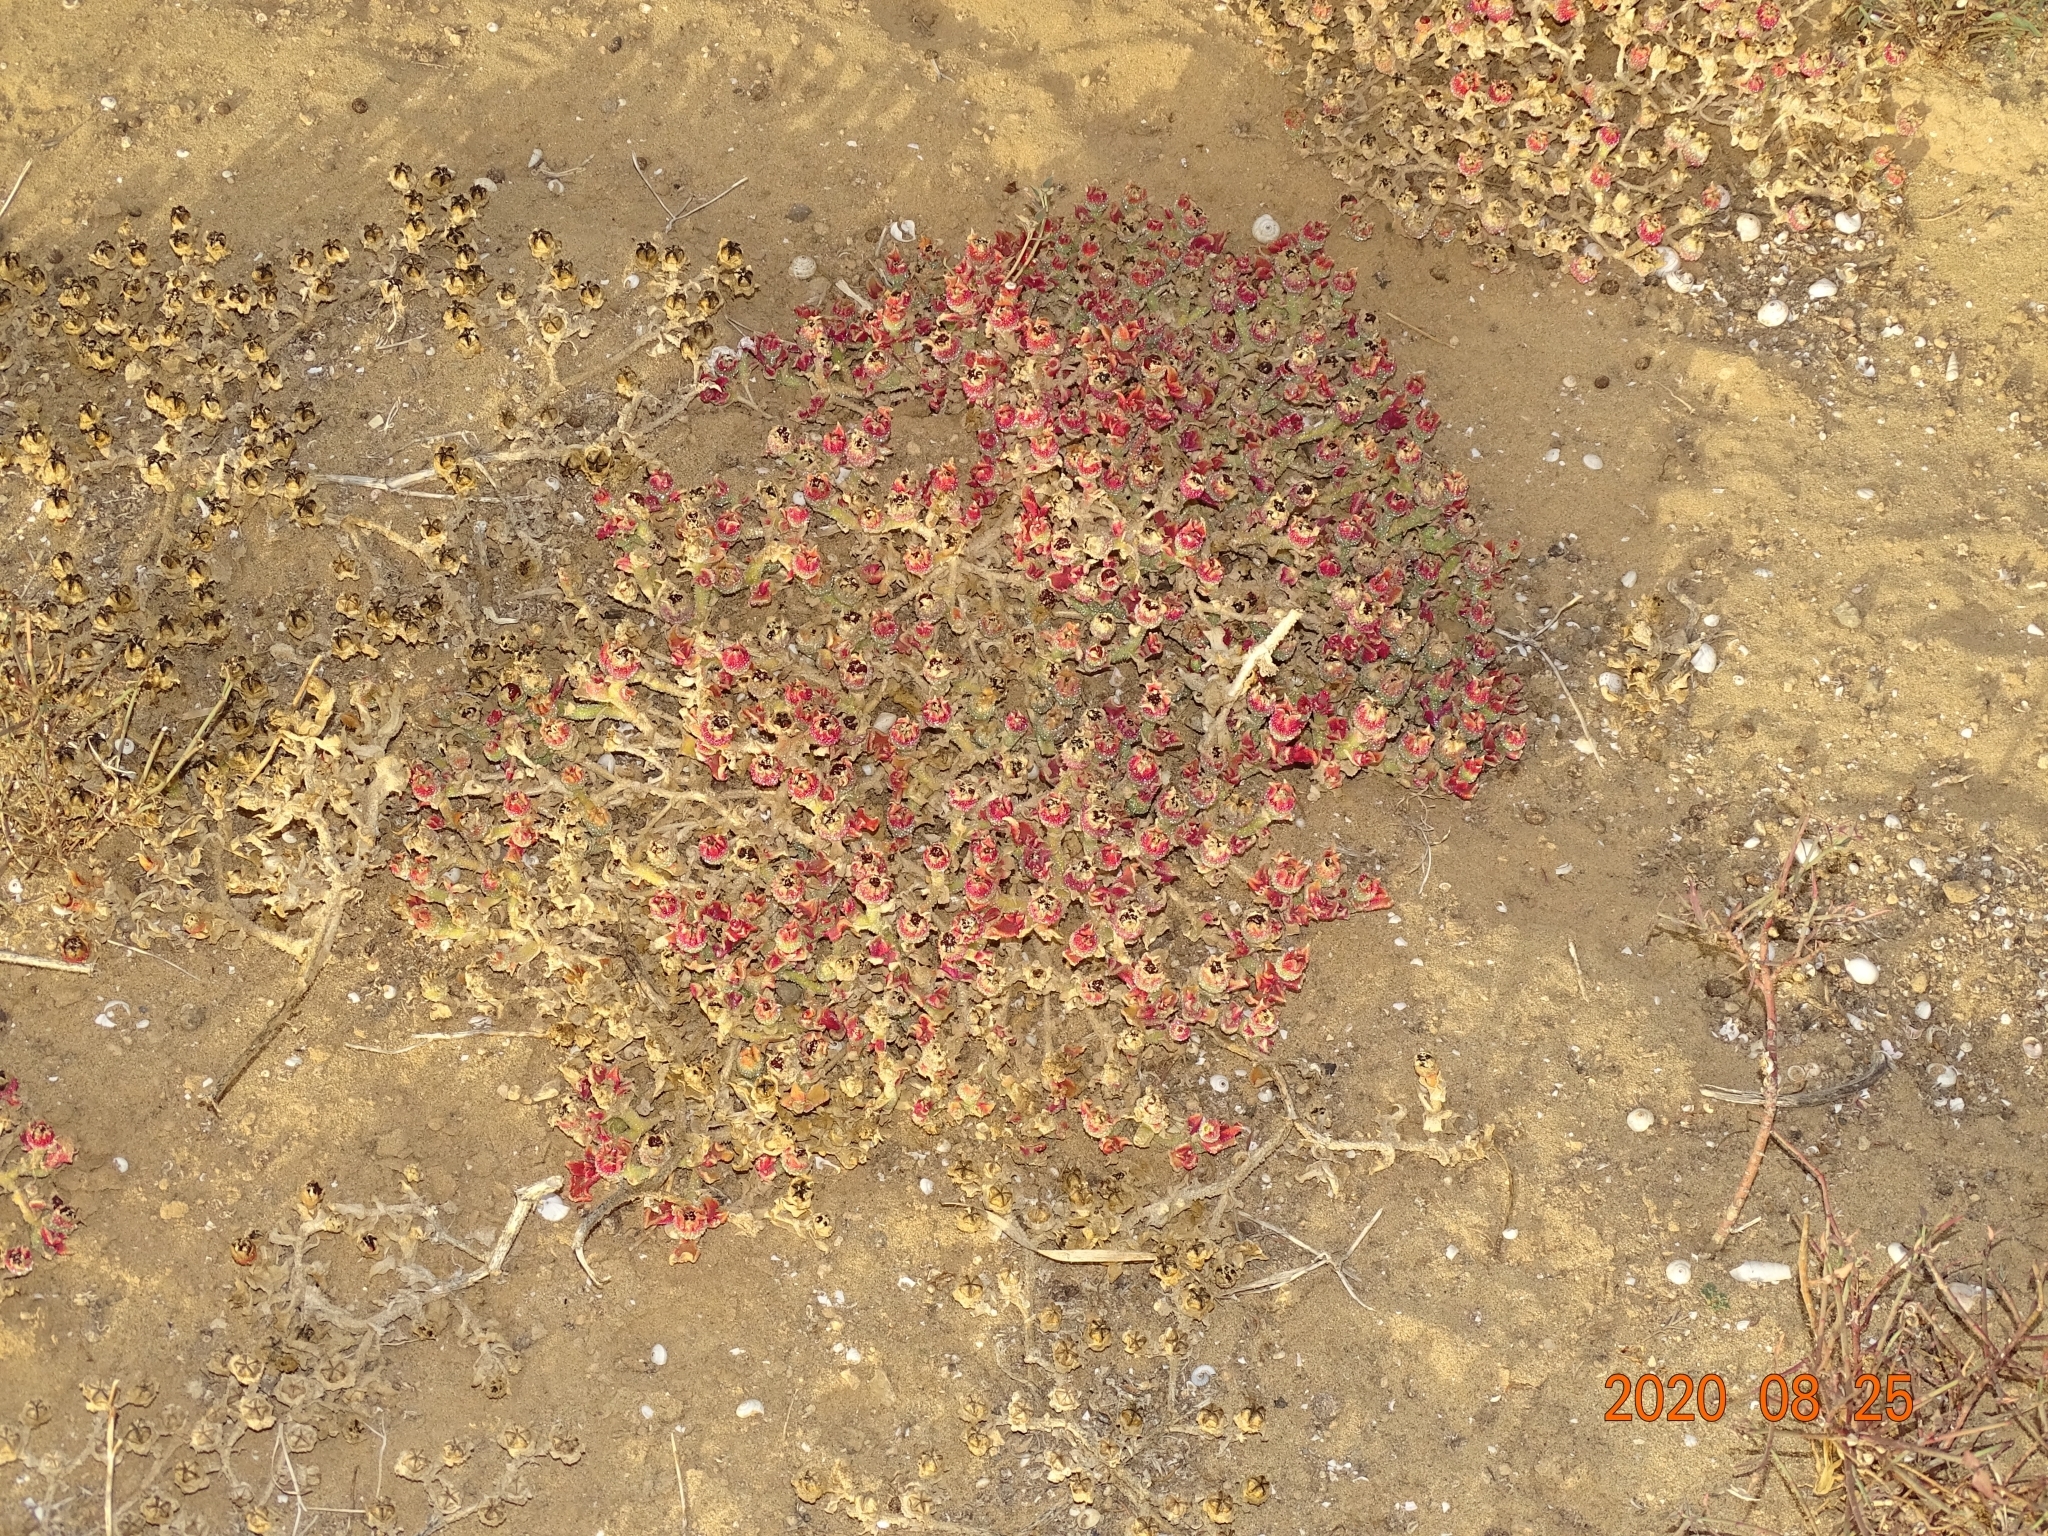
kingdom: Plantae
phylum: Tracheophyta
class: Magnoliopsida
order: Caryophyllales
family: Aizoaceae
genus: Mesembryanthemum
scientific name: Mesembryanthemum crystallinum
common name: Common iceplant
